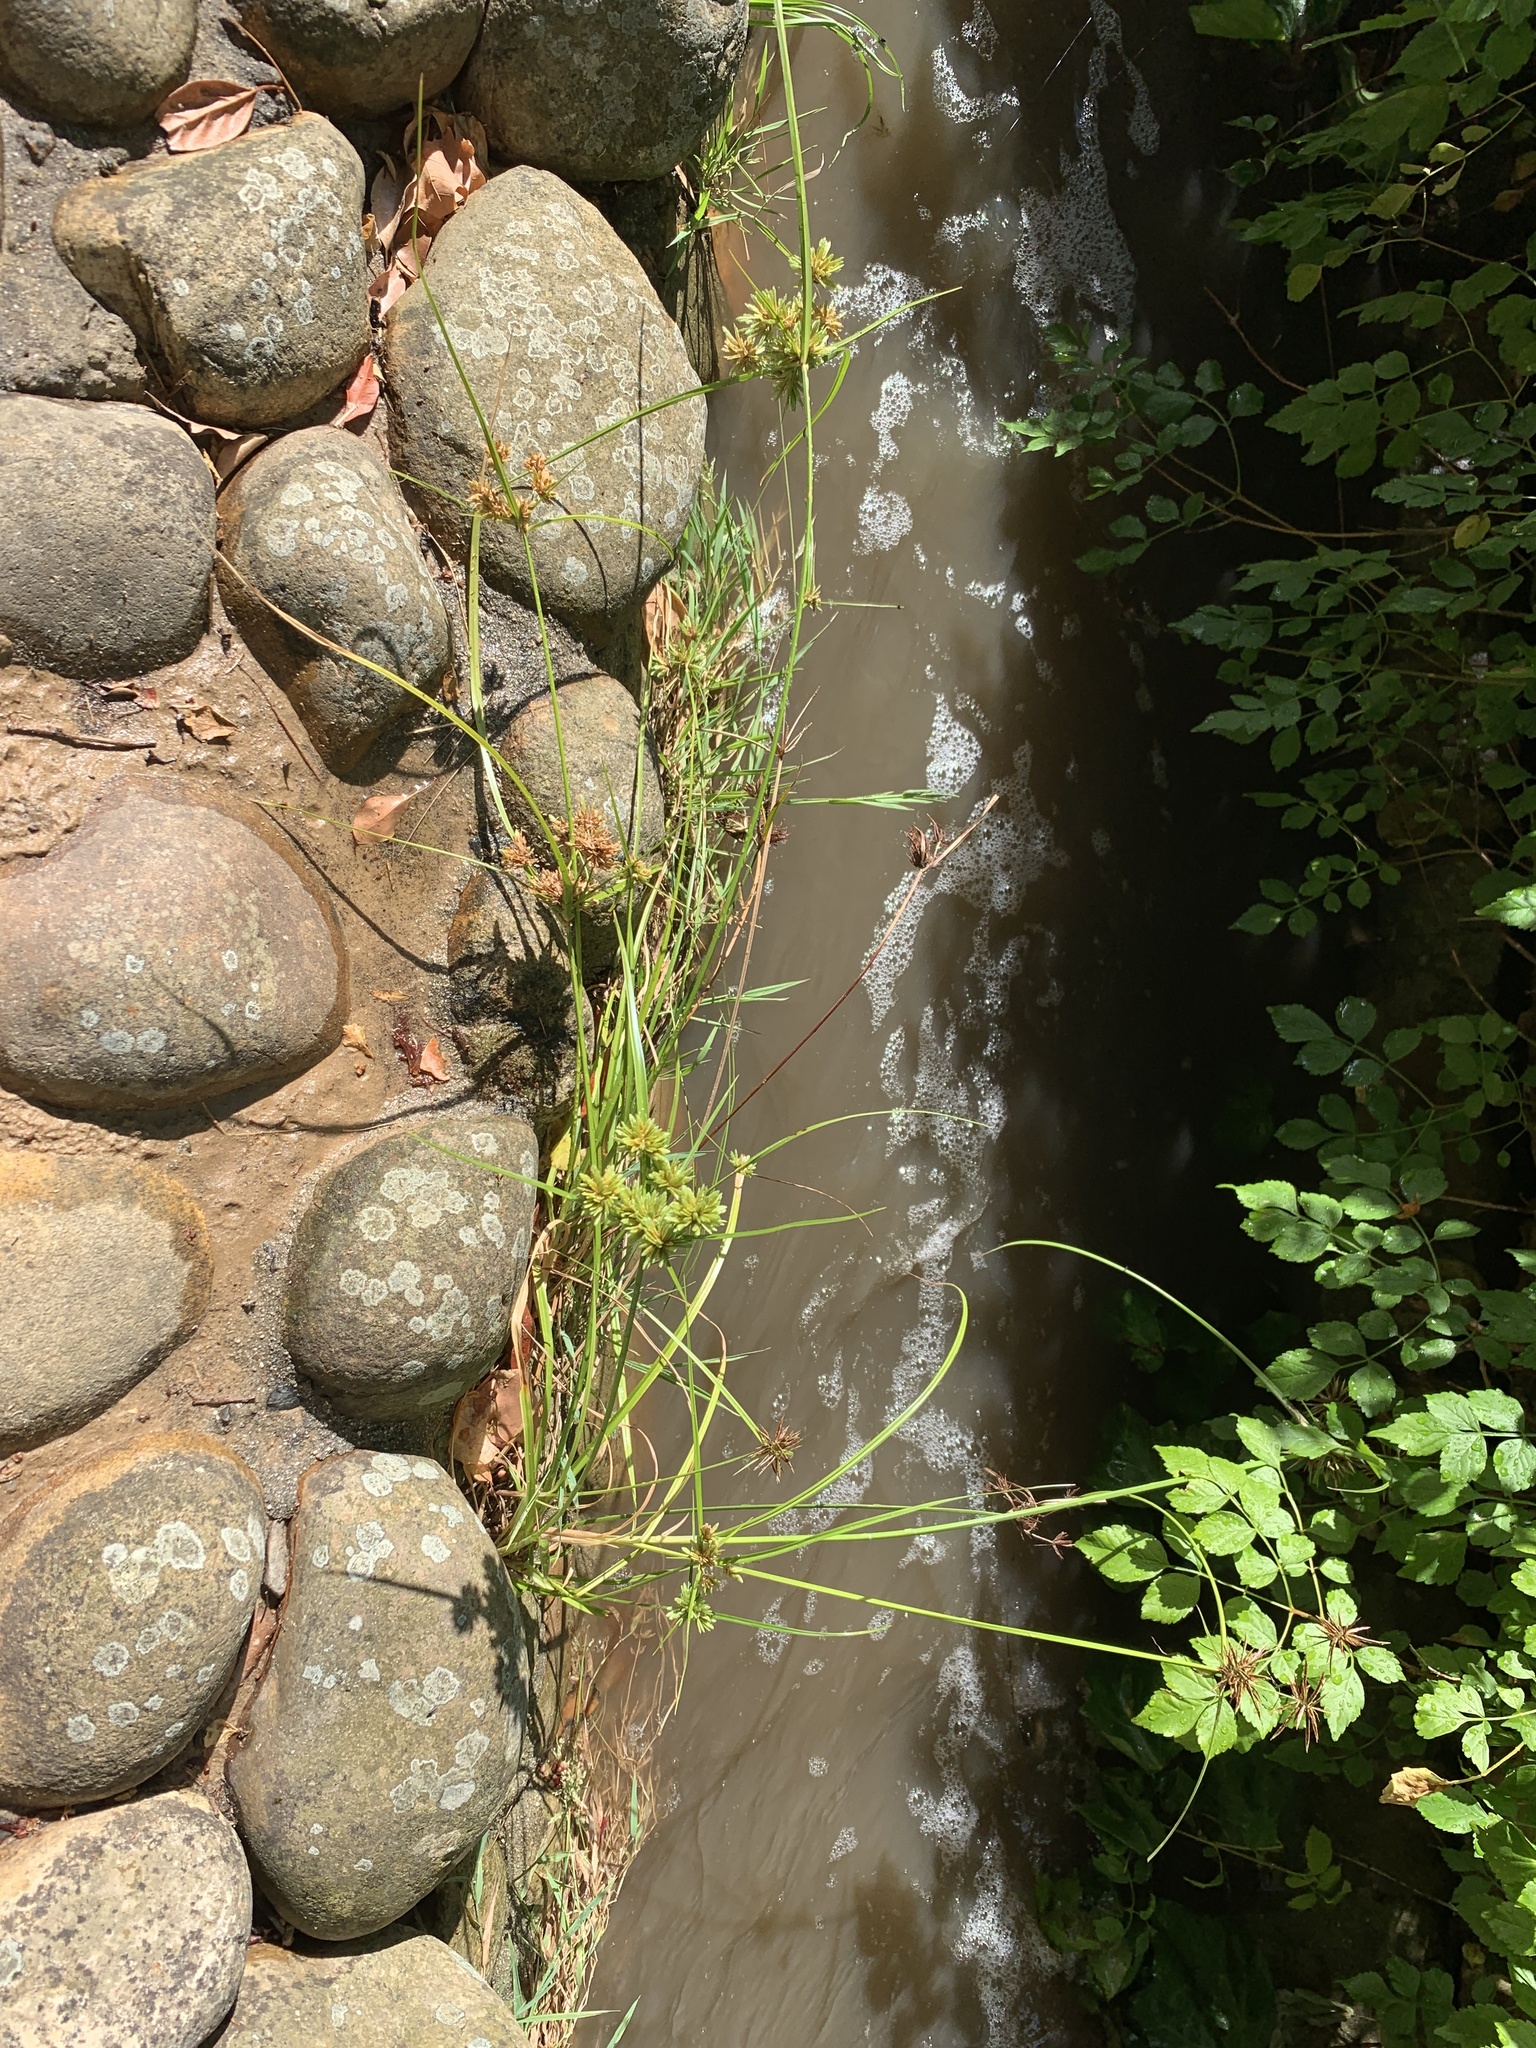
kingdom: Plantae
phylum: Tracheophyta
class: Liliopsida
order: Poales
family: Cyperaceae
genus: Cyperus
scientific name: Cyperus eragrostis
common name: Tall flatsedge
